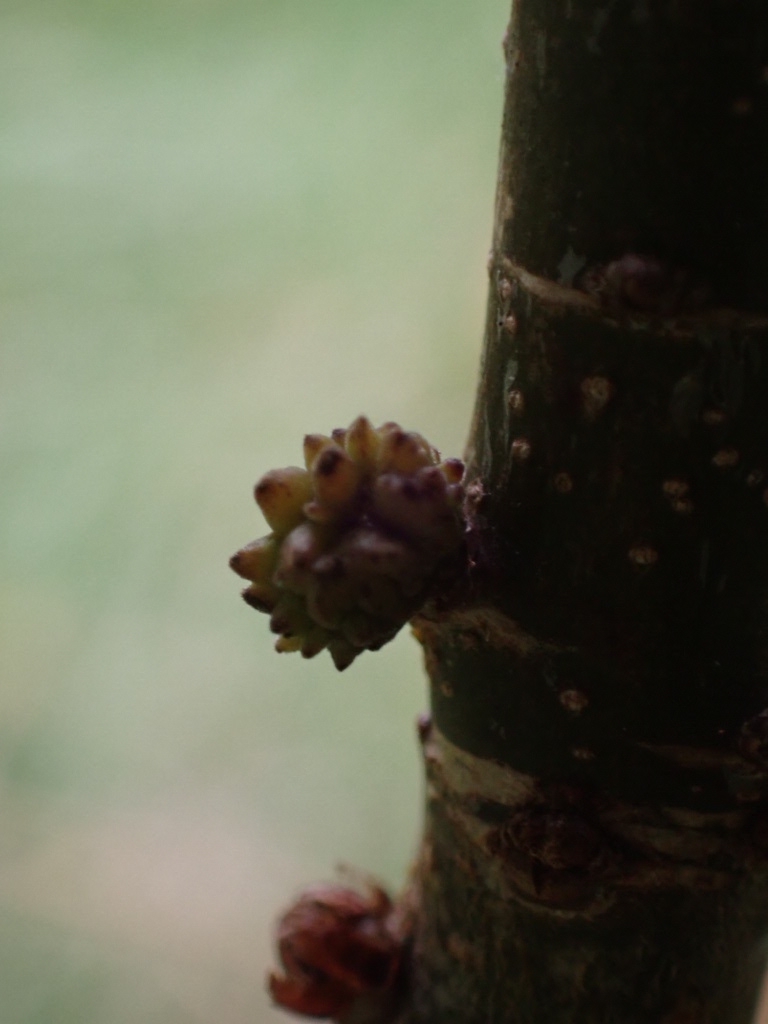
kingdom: Animalia
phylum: Arthropoda
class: Insecta
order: Hymenoptera
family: Cynipidae
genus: Andricus
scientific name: Andricus gemmeus
